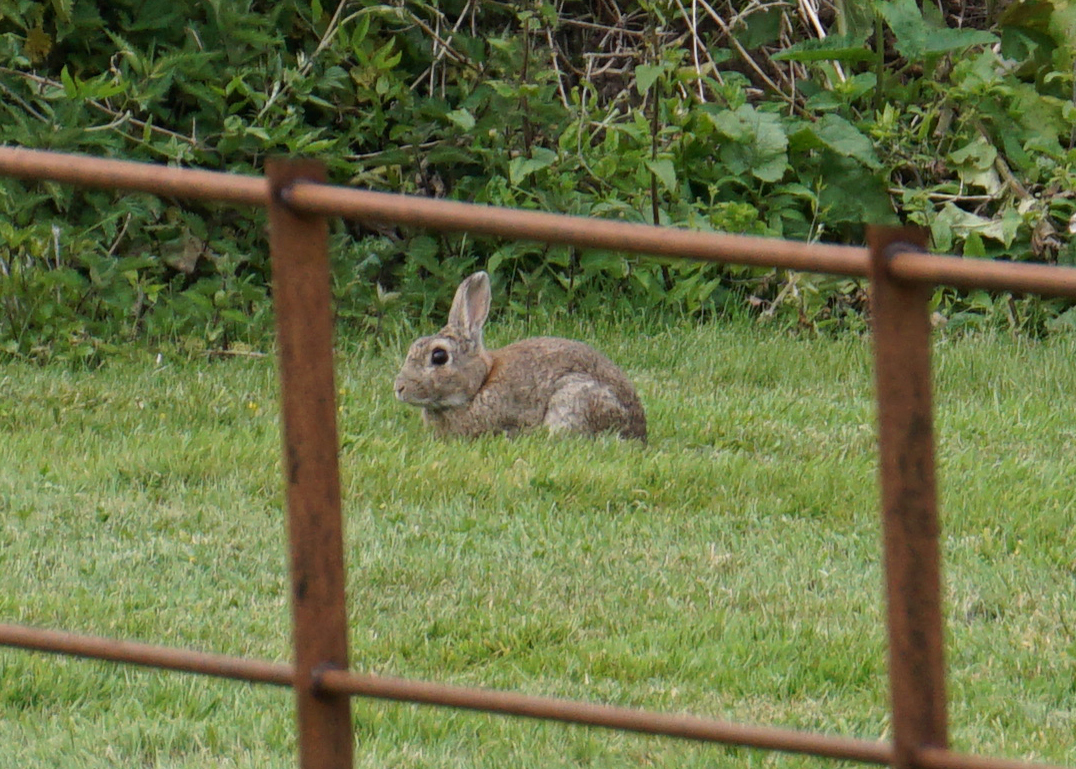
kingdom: Animalia
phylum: Chordata
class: Mammalia
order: Lagomorpha
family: Leporidae
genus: Oryctolagus
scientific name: Oryctolagus cuniculus
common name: European rabbit
